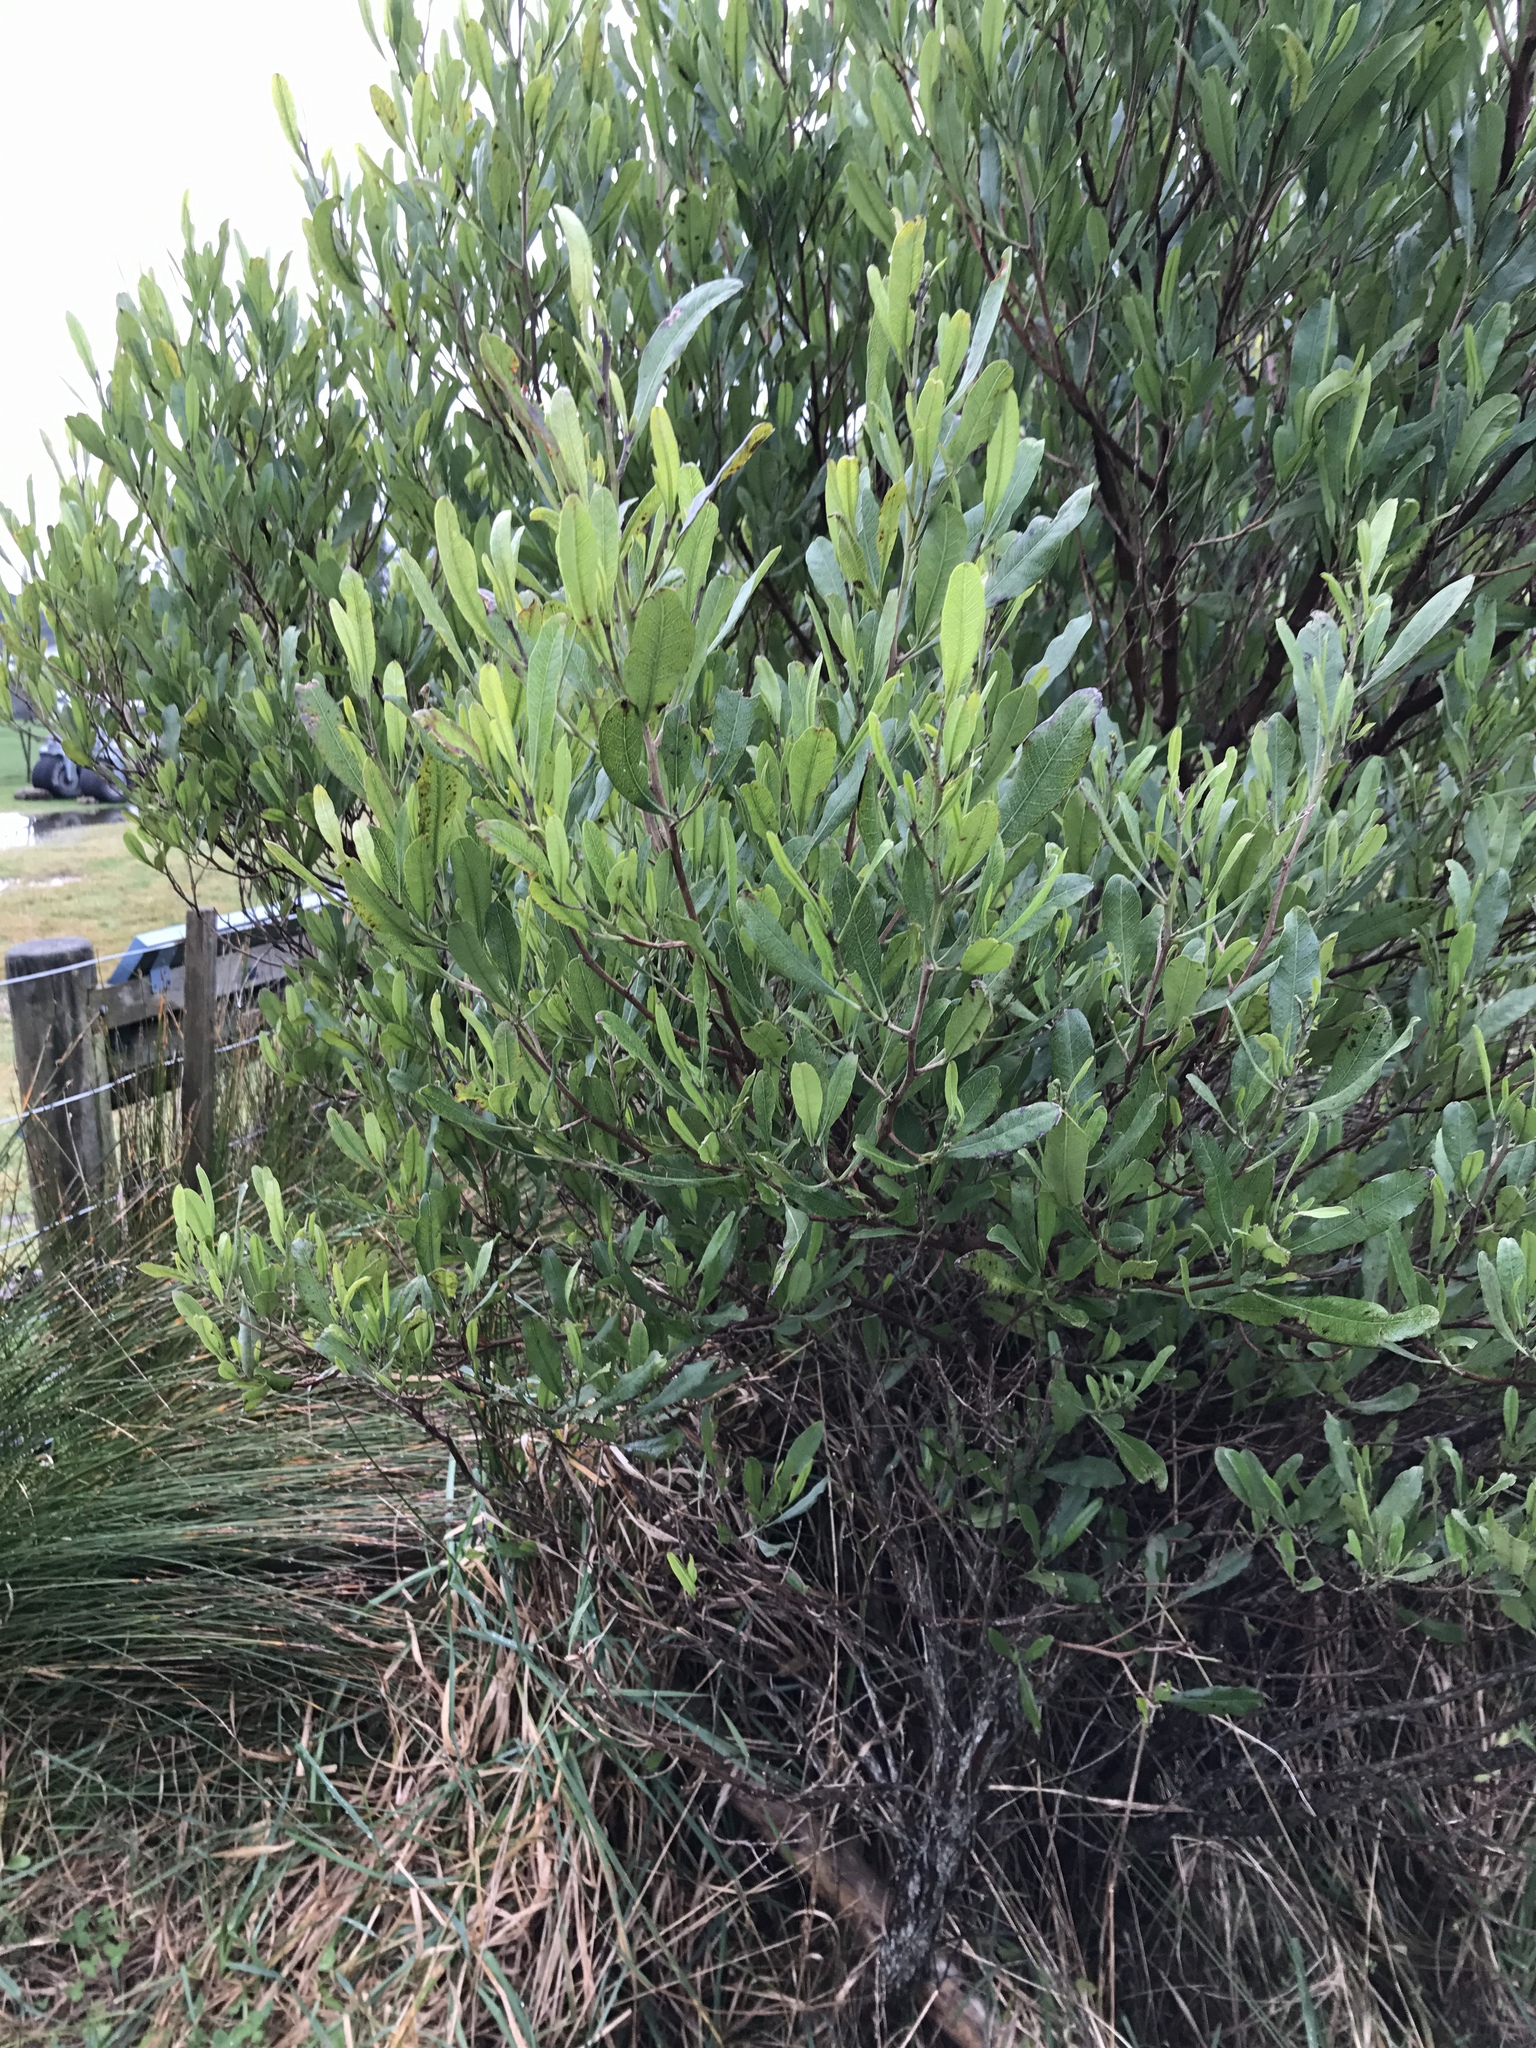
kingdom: Plantae
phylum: Tracheophyta
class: Magnoliopsida
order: Sapindales
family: Sapindaceae
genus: Dodonaea
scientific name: Dodonaea viscosa
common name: Hopbush
